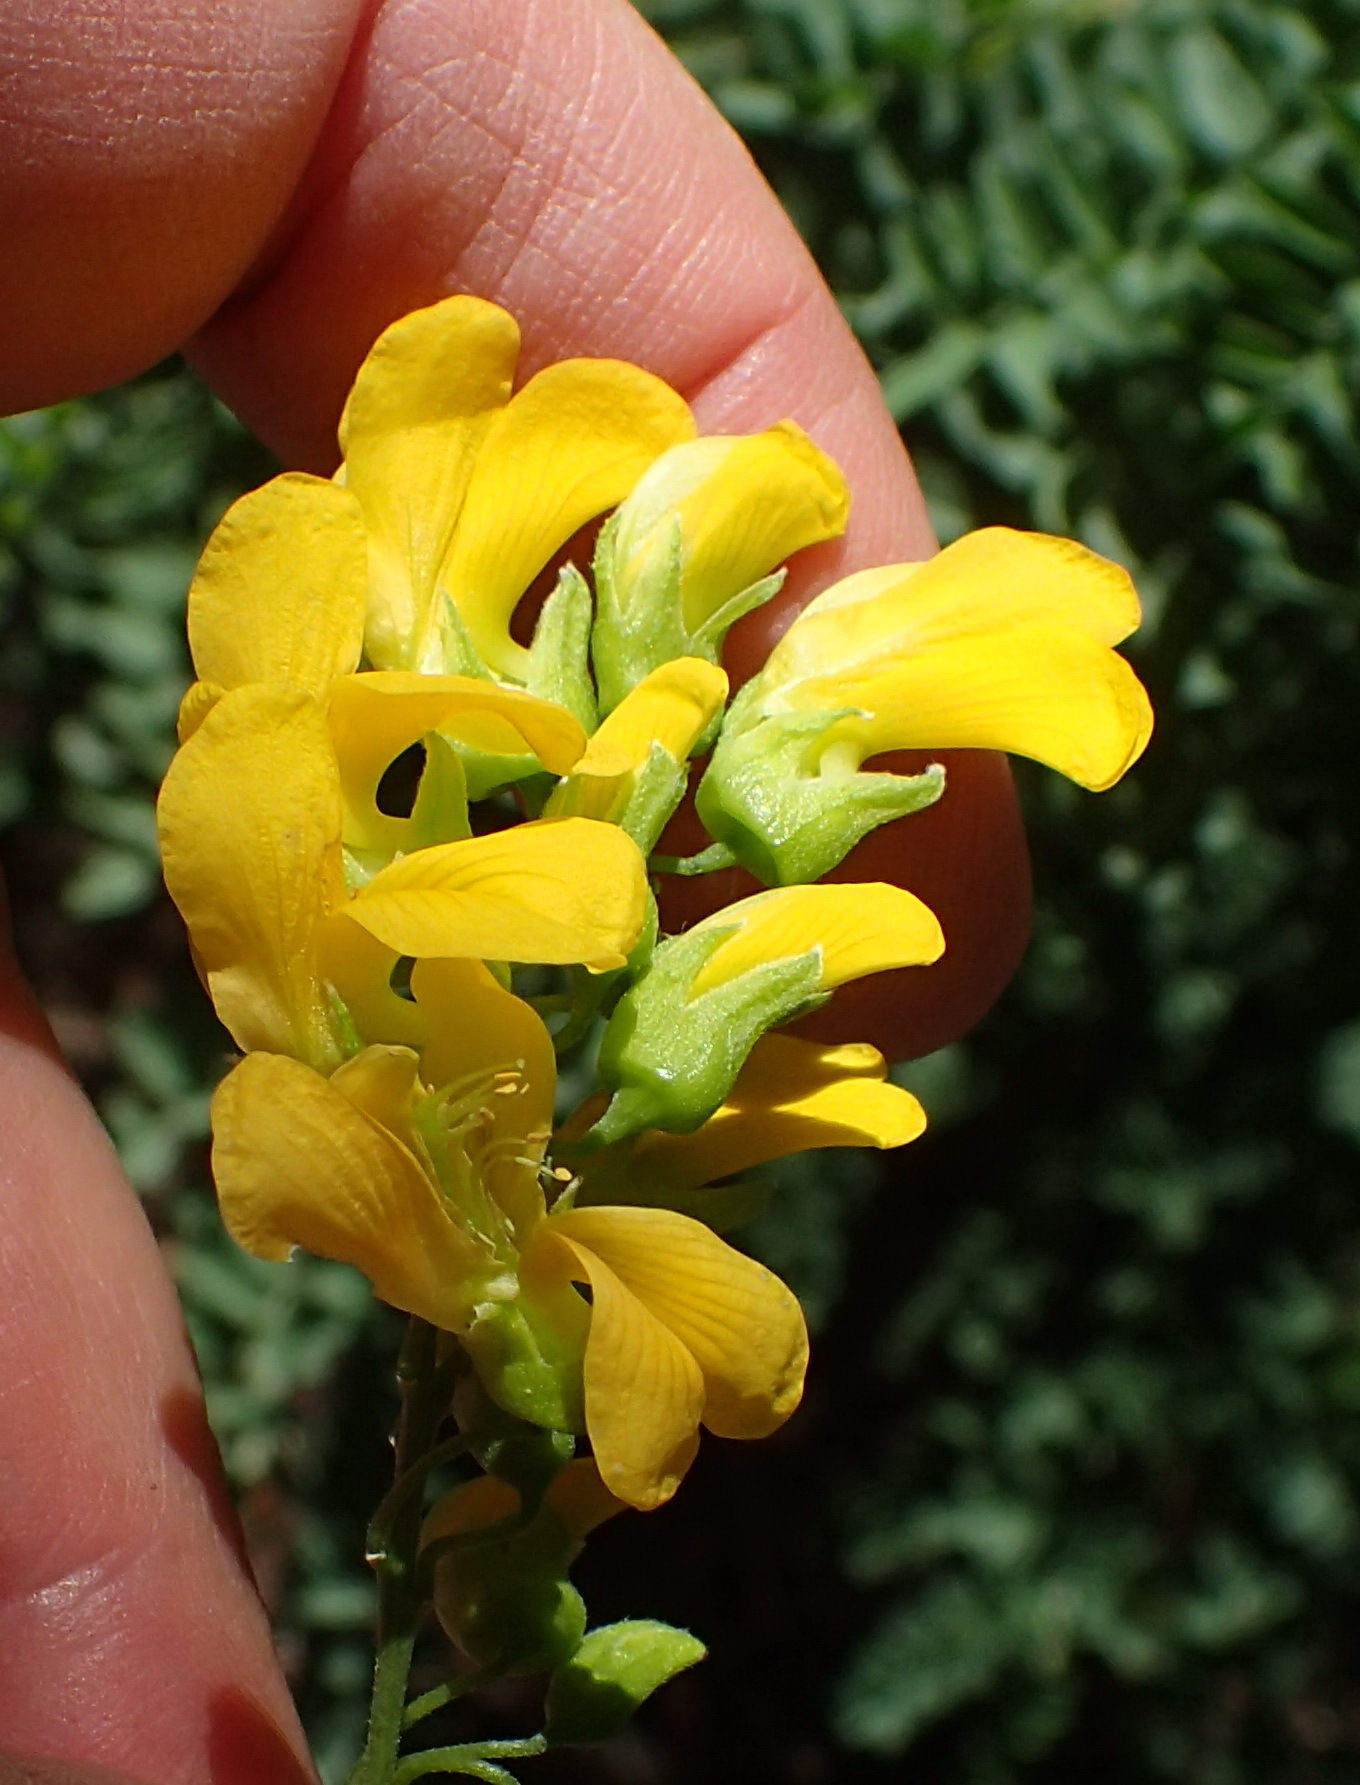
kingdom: Plantae
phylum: Tracheophyta
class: Magnoliopsida
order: Fabales
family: Fabaceae
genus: Calpurnia
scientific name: Calpurnia intrusa
